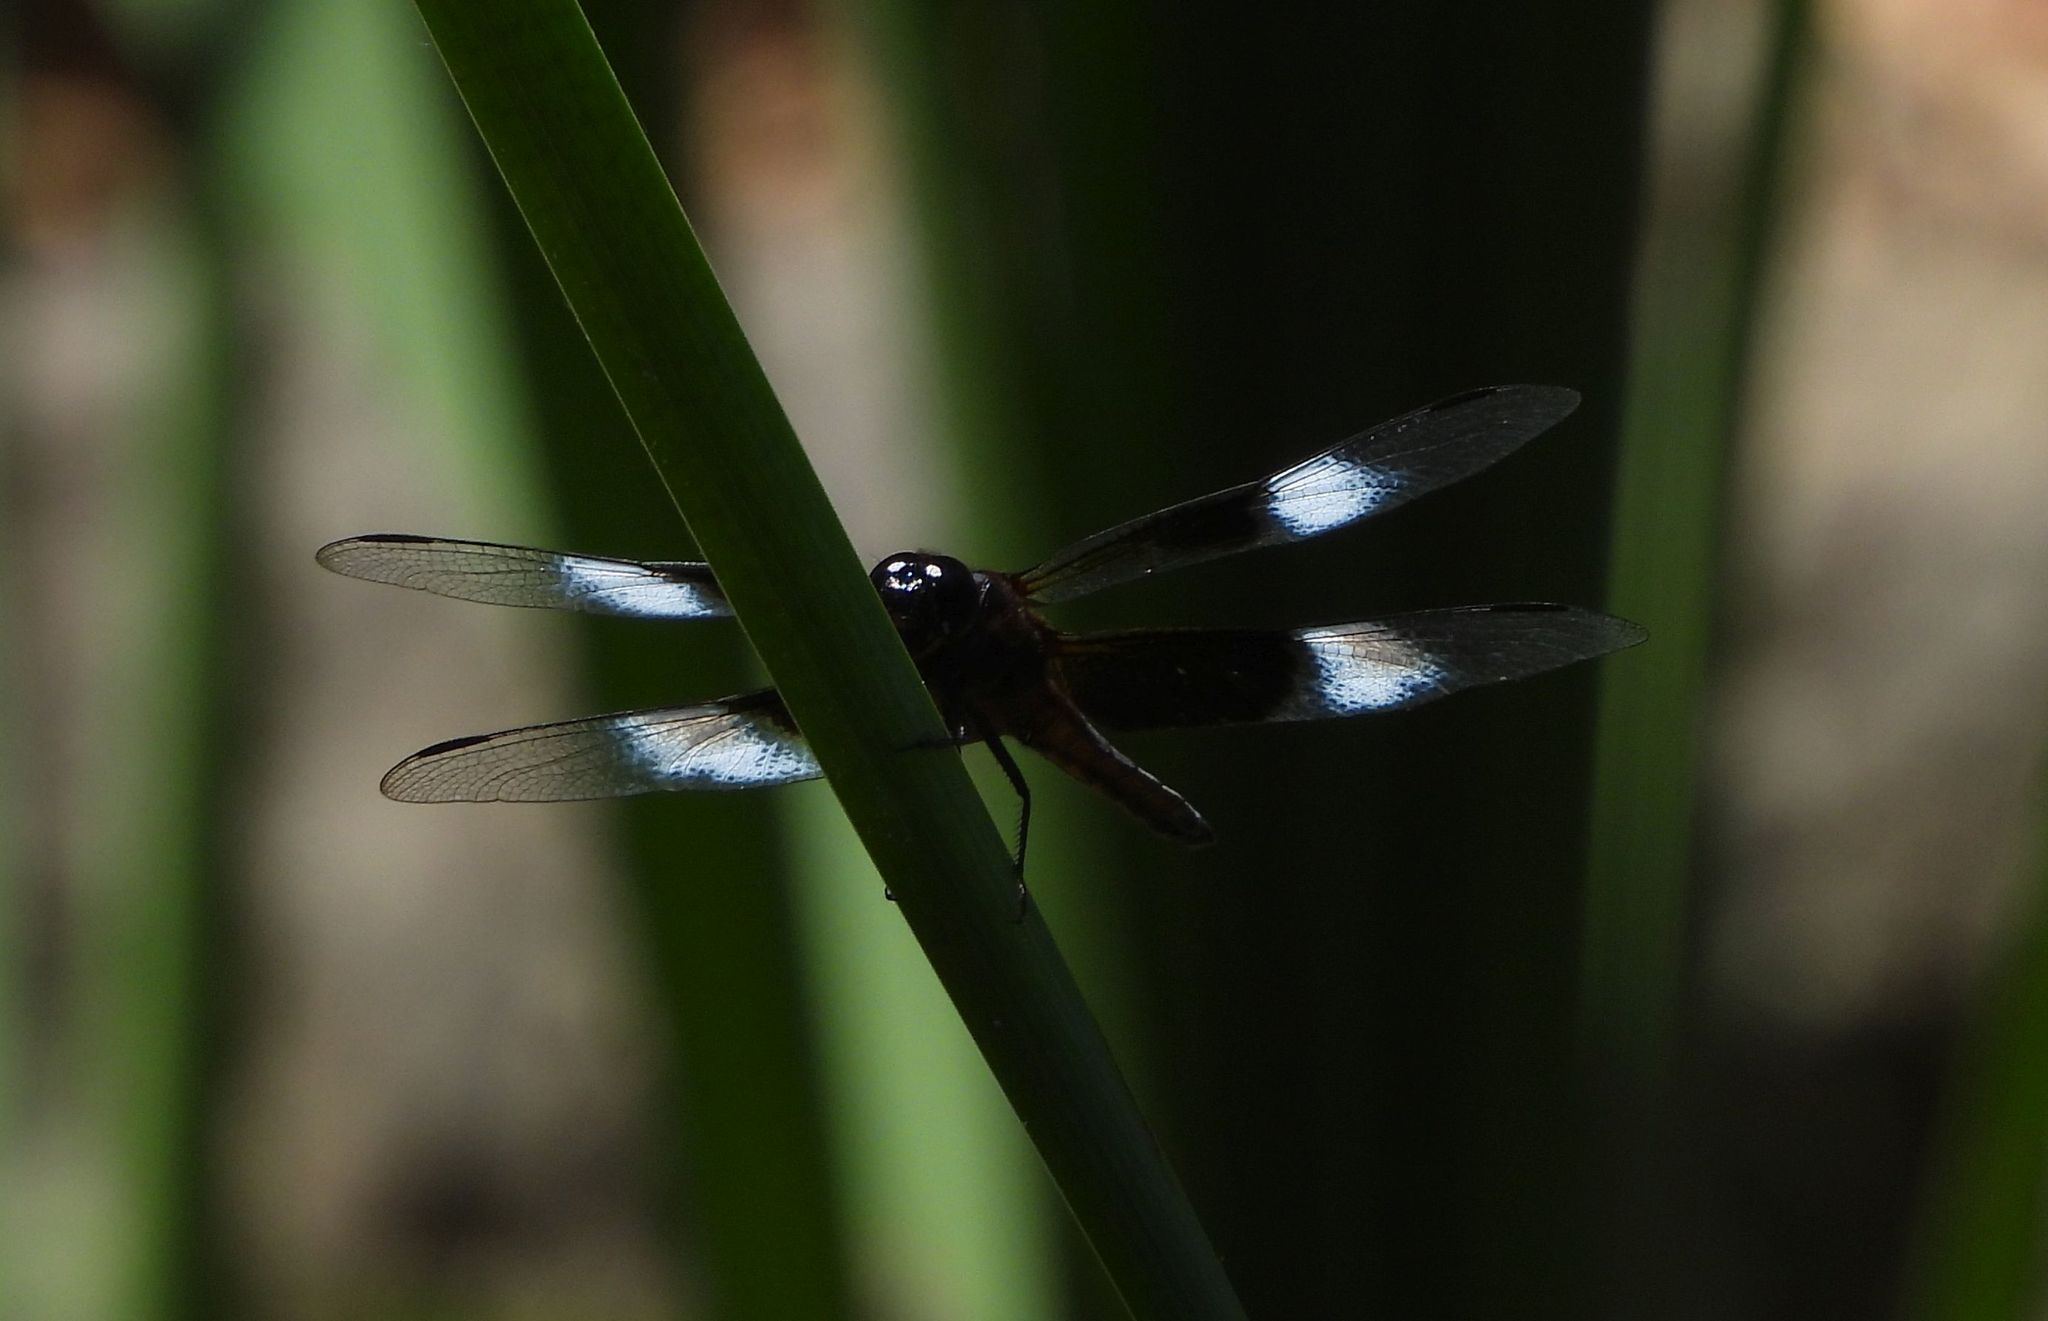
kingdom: Animalia
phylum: Arthropoda
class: Insecta
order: Odonata
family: Libellulidae
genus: Libellula
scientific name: Libellula luctuosa
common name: Widow skimmer
